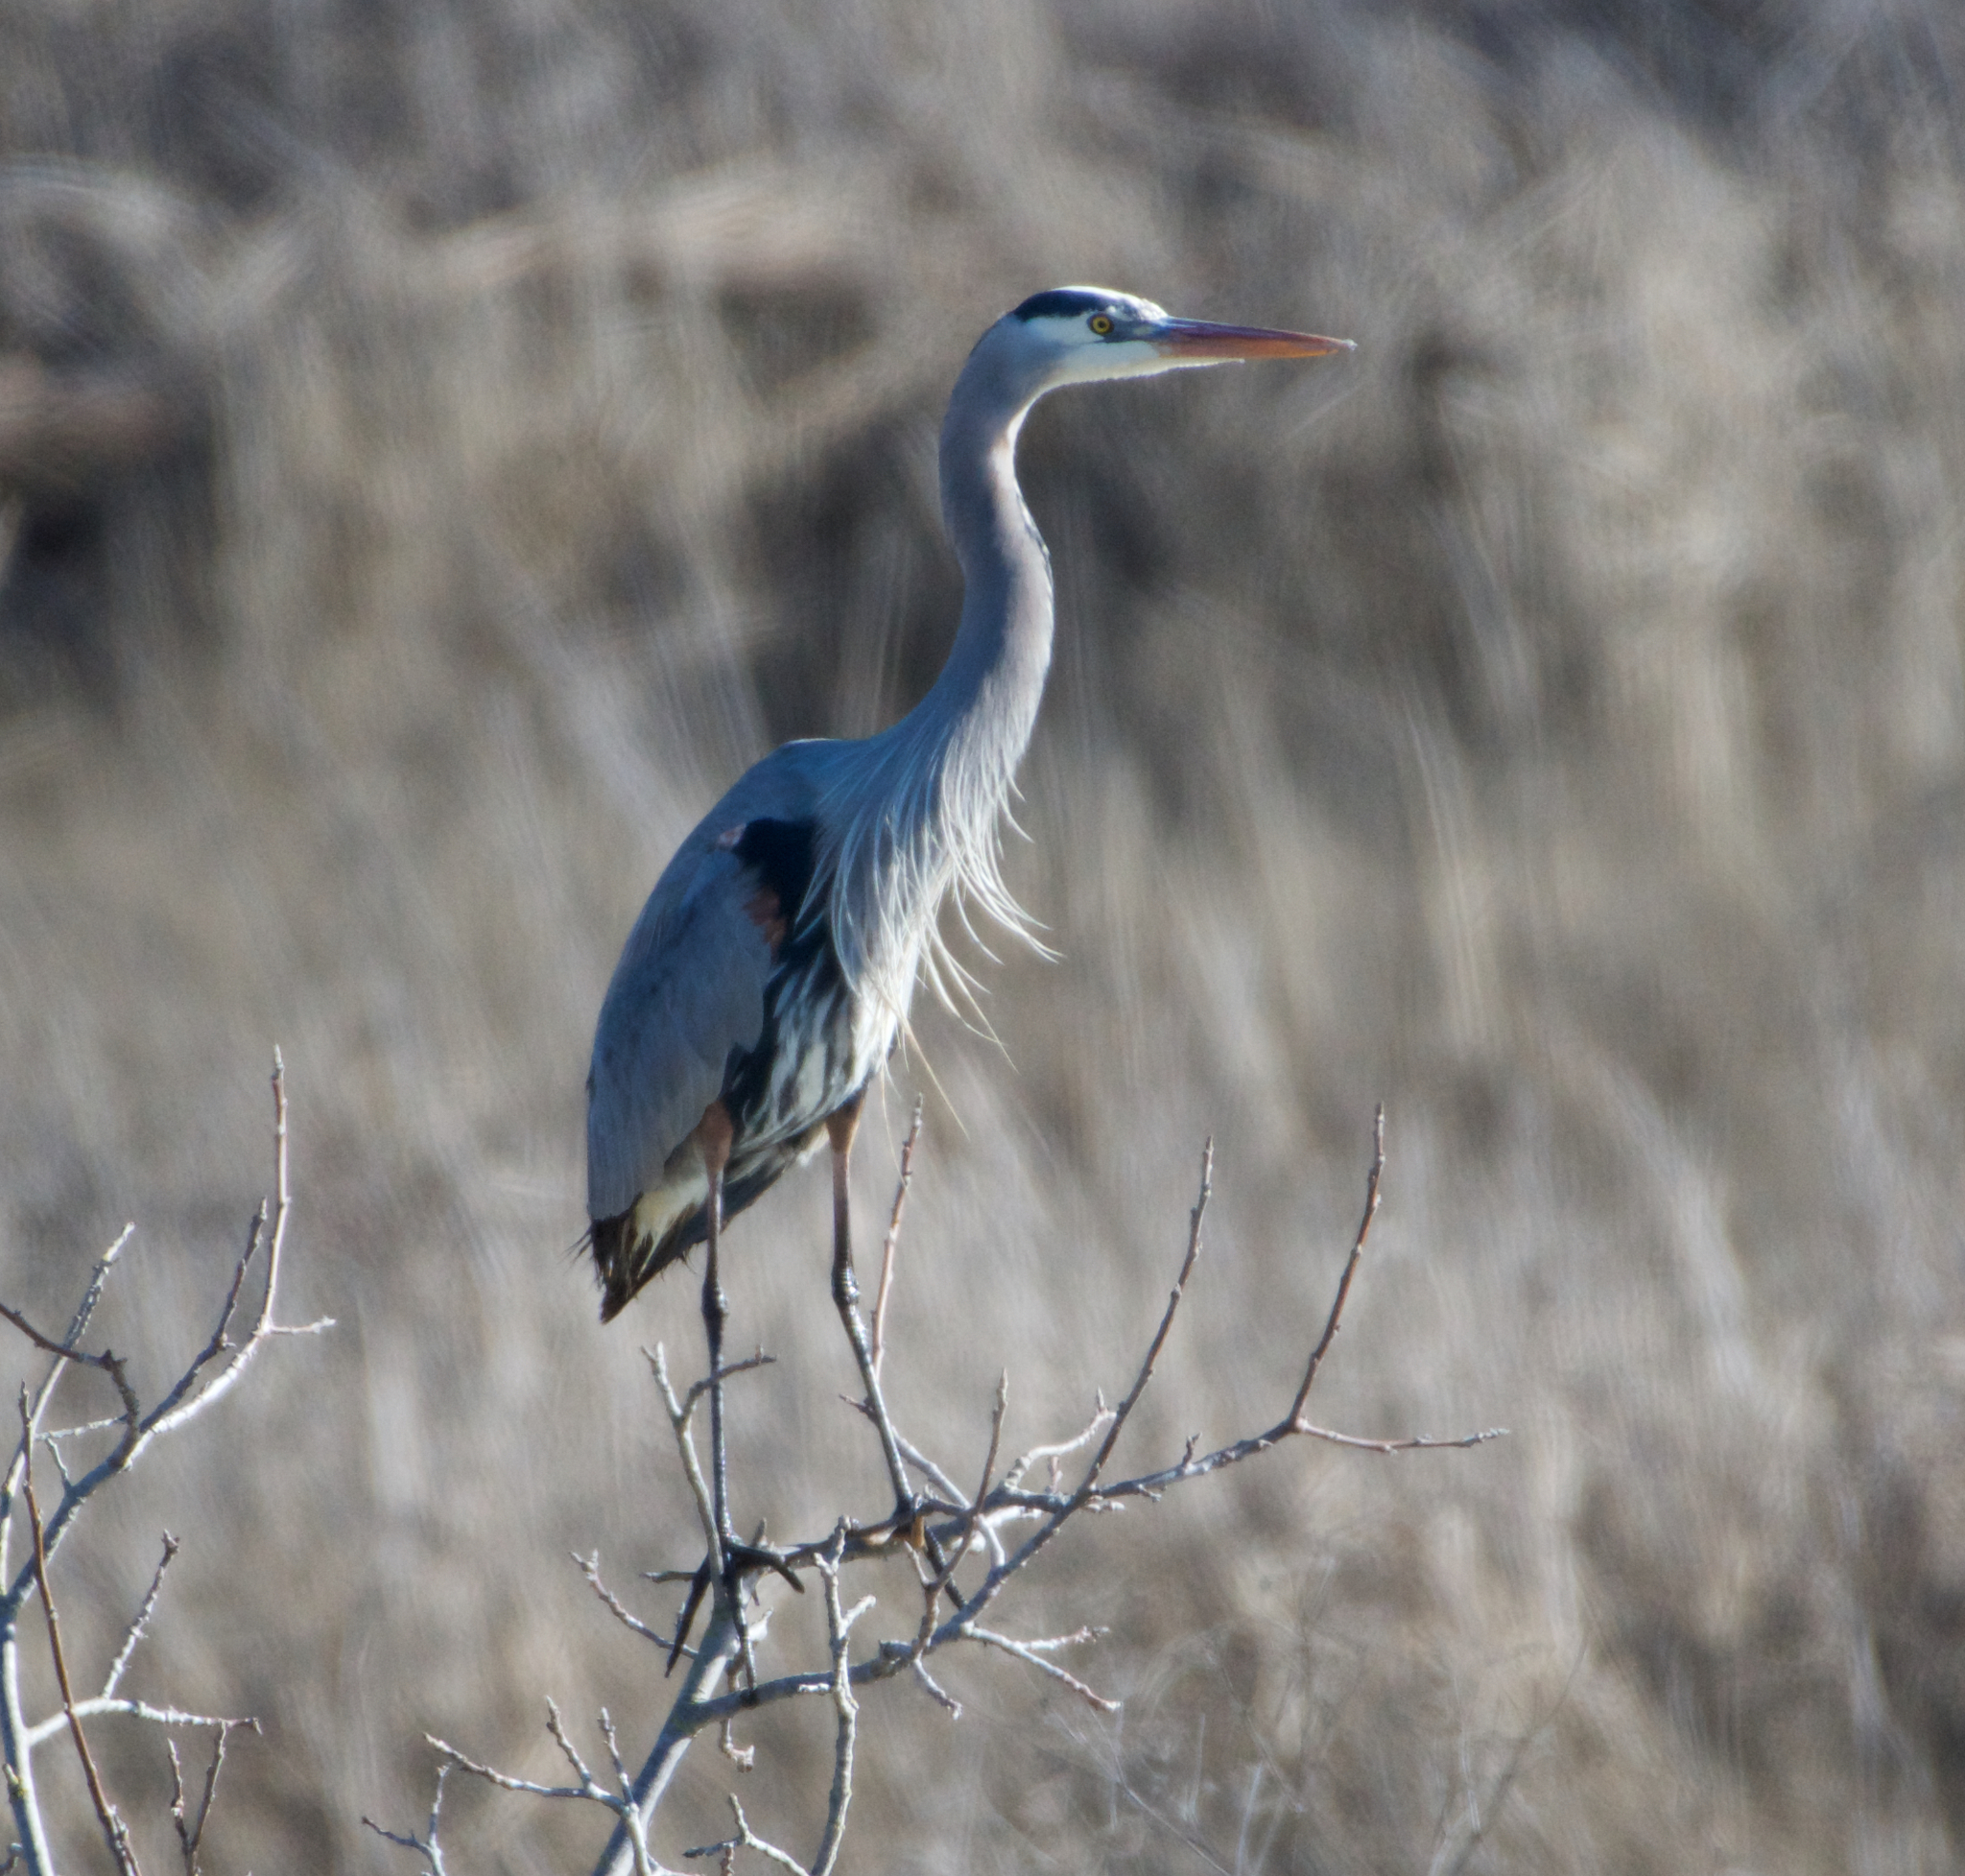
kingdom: Animalia
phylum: Chordata
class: Aves
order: Pelecaniformes
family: Ardeidae
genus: Ardea
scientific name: Ardea herodias
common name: Great blue heron
